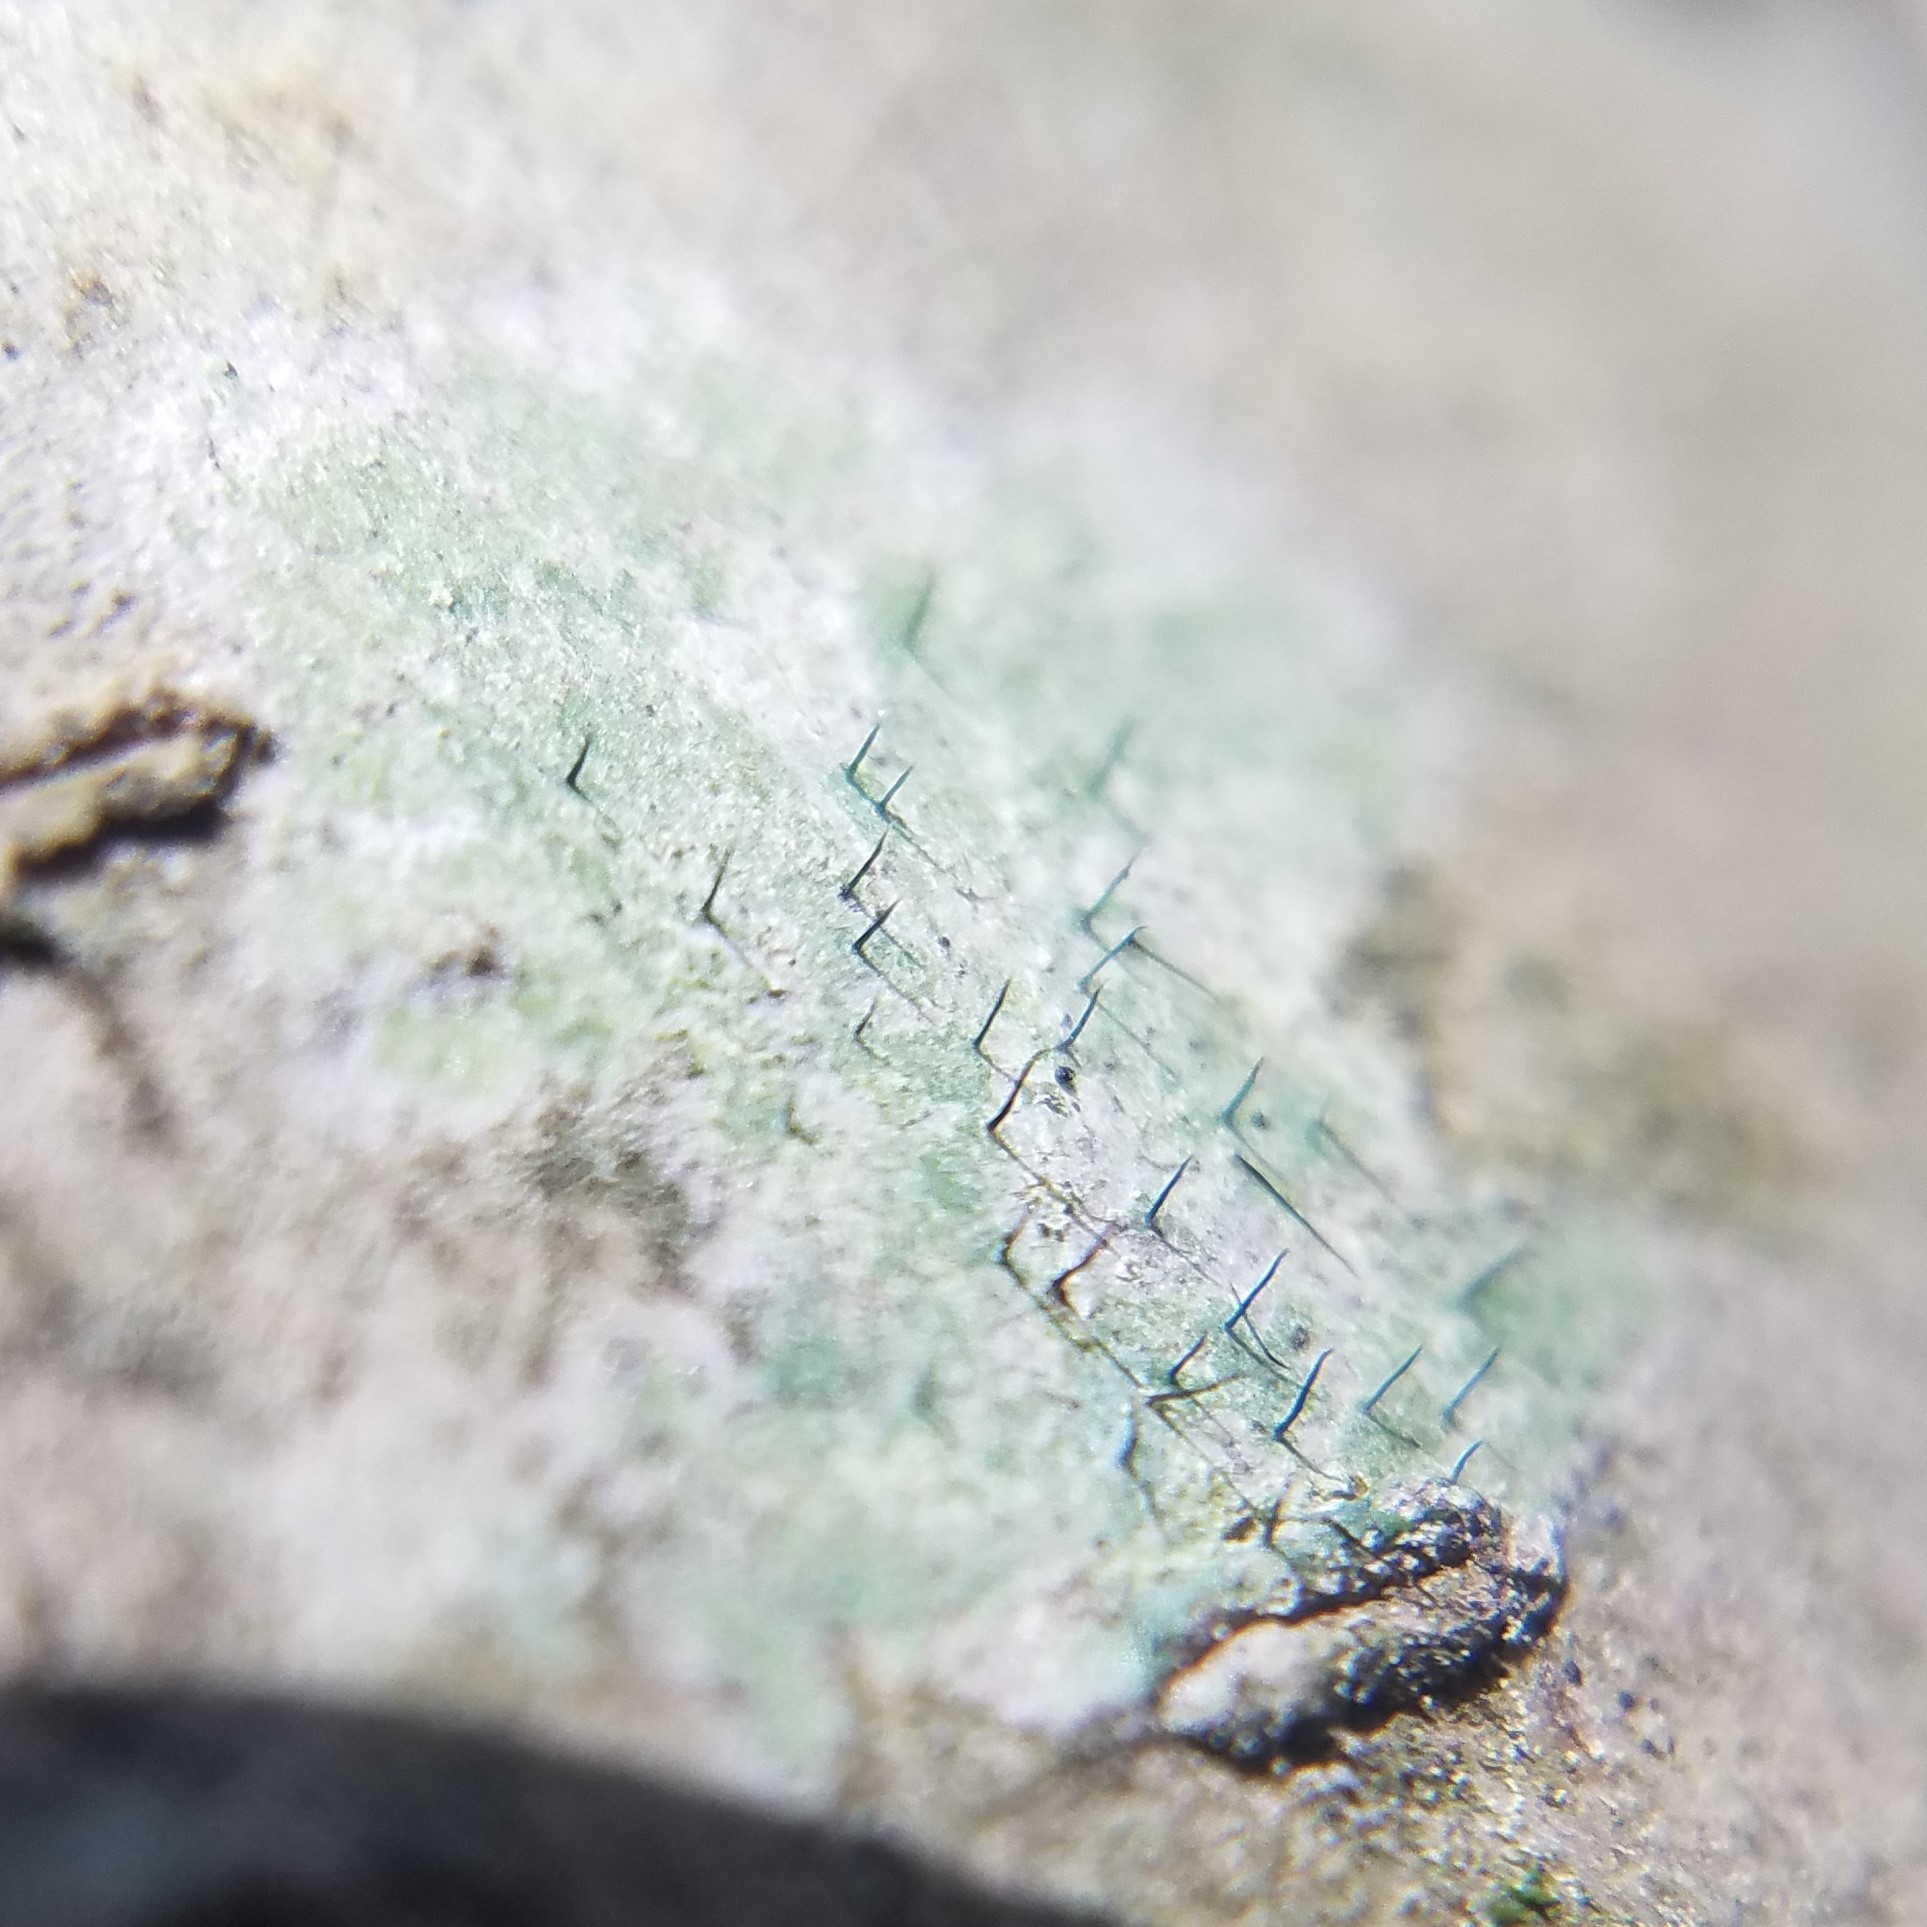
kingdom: Fungi
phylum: Ascomycota
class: Lecanoromycetes
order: Ostropales
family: Gomphillaceae
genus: Gyalideopsis
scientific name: Gyalideopsis buckii
